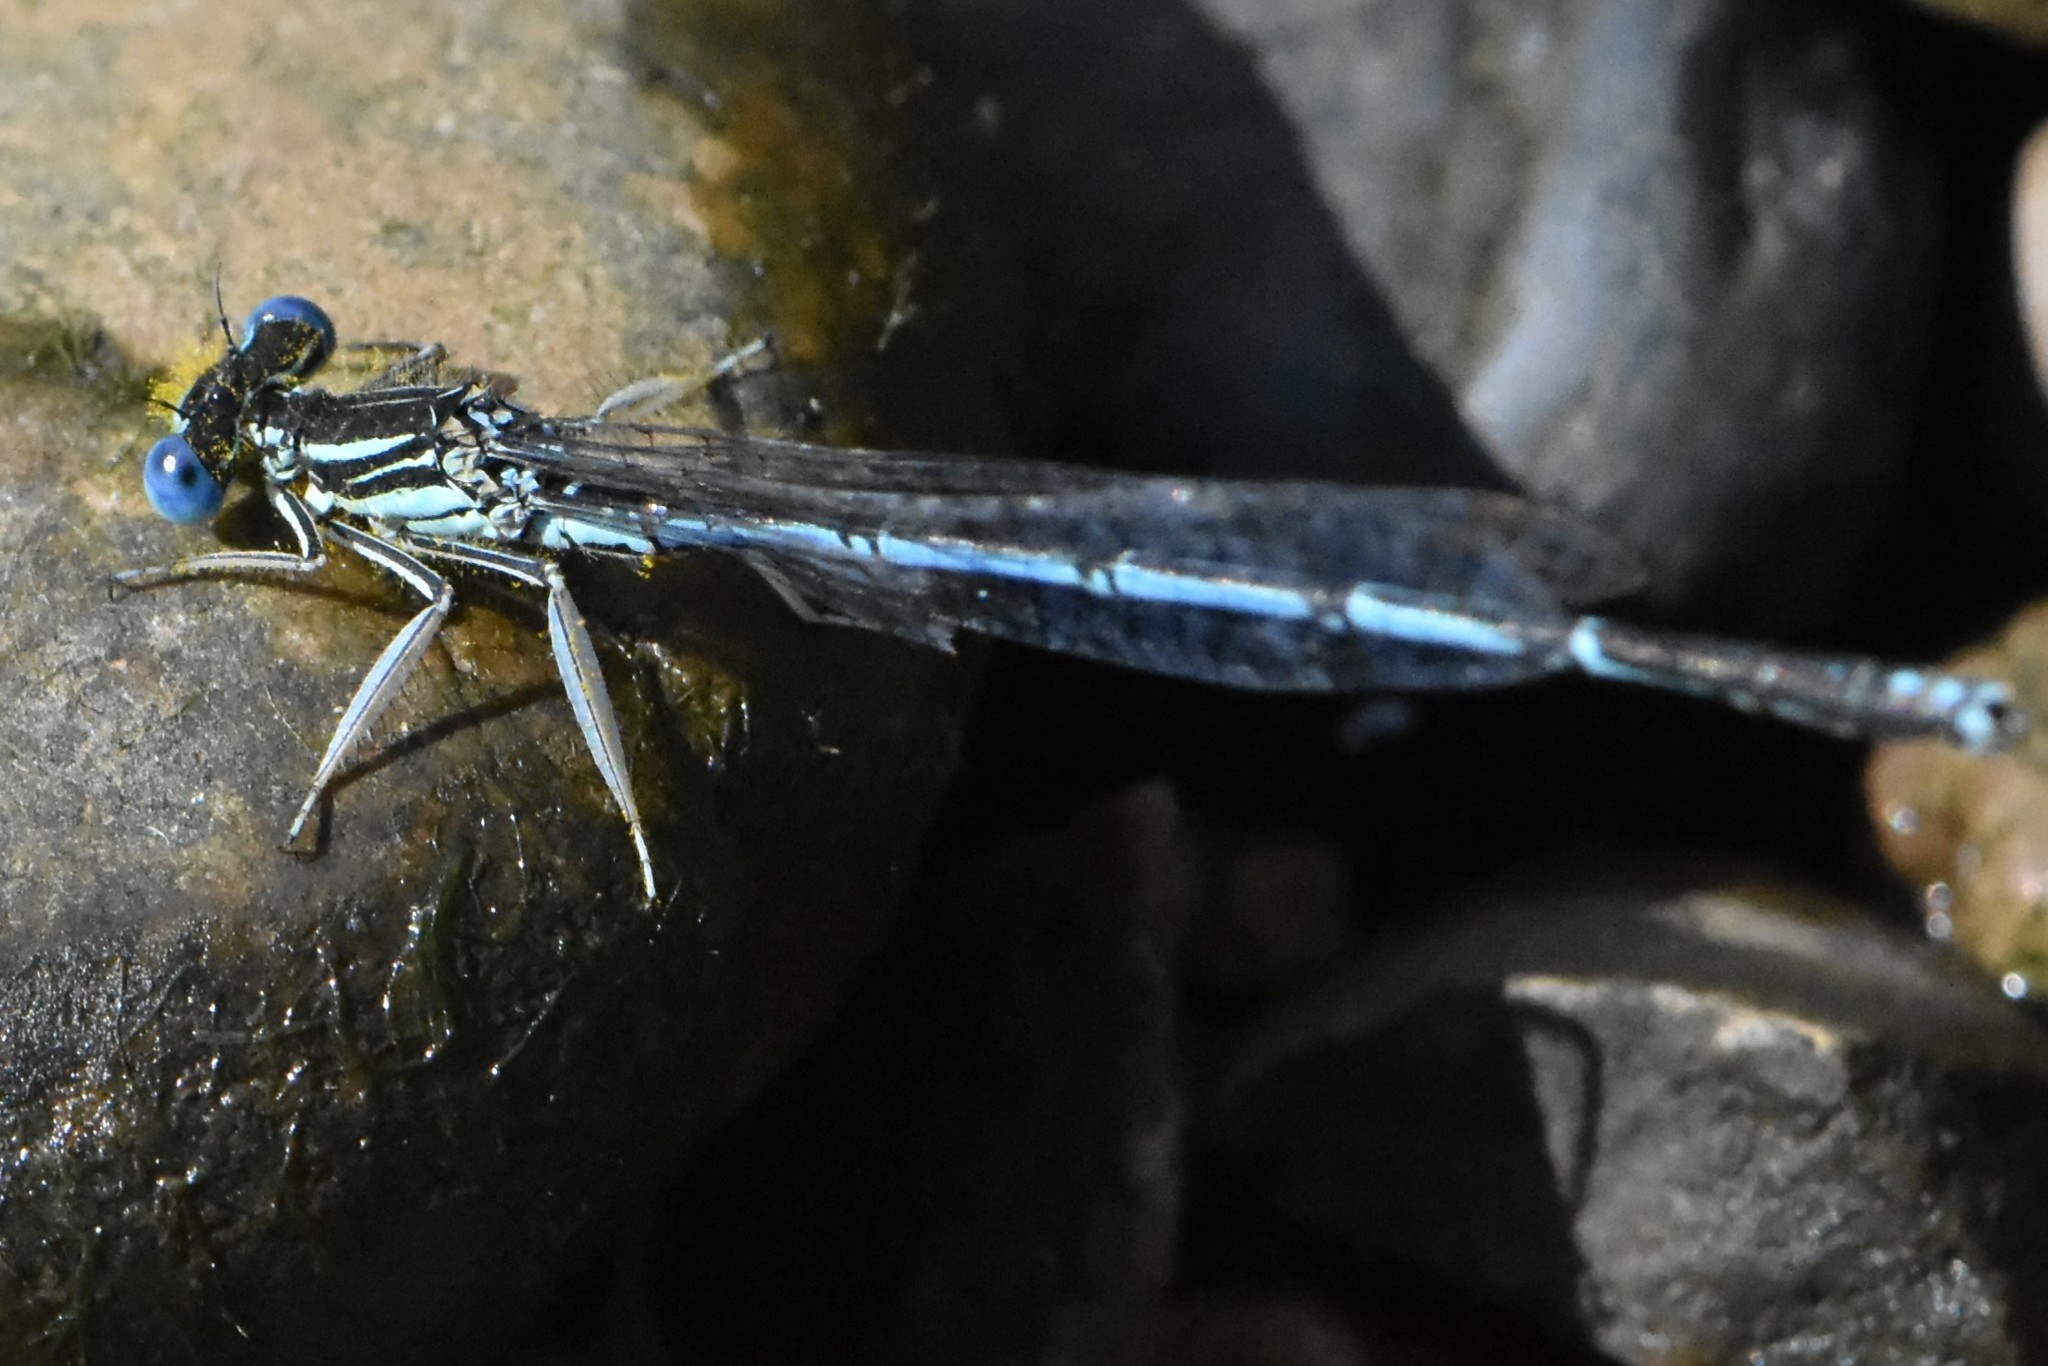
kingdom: Animalia
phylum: Arthropoda
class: Insecta
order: Odonata
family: Platycnemididae
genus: Platycnemis
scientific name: Platycnemis pennipes
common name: White-legged damselfly
